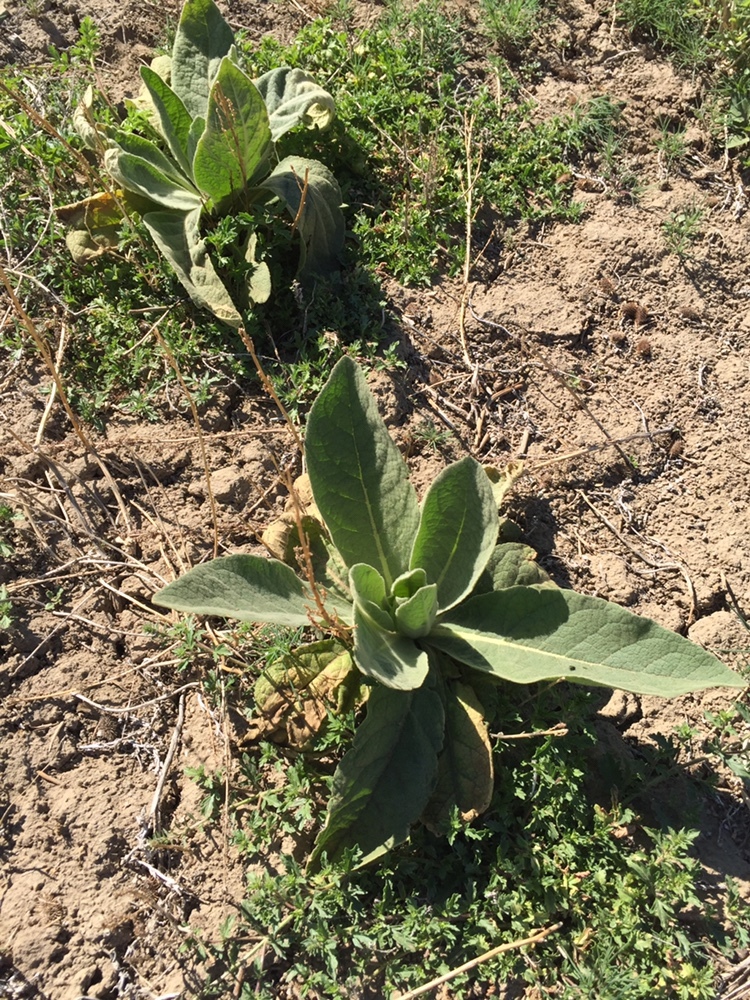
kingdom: Plantae
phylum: Tracheophyta
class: Magnoliopsida
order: Lamiales
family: Scrophulariaceae
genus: Verbascum
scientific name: Verbascum thapsus
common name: Common mullein
